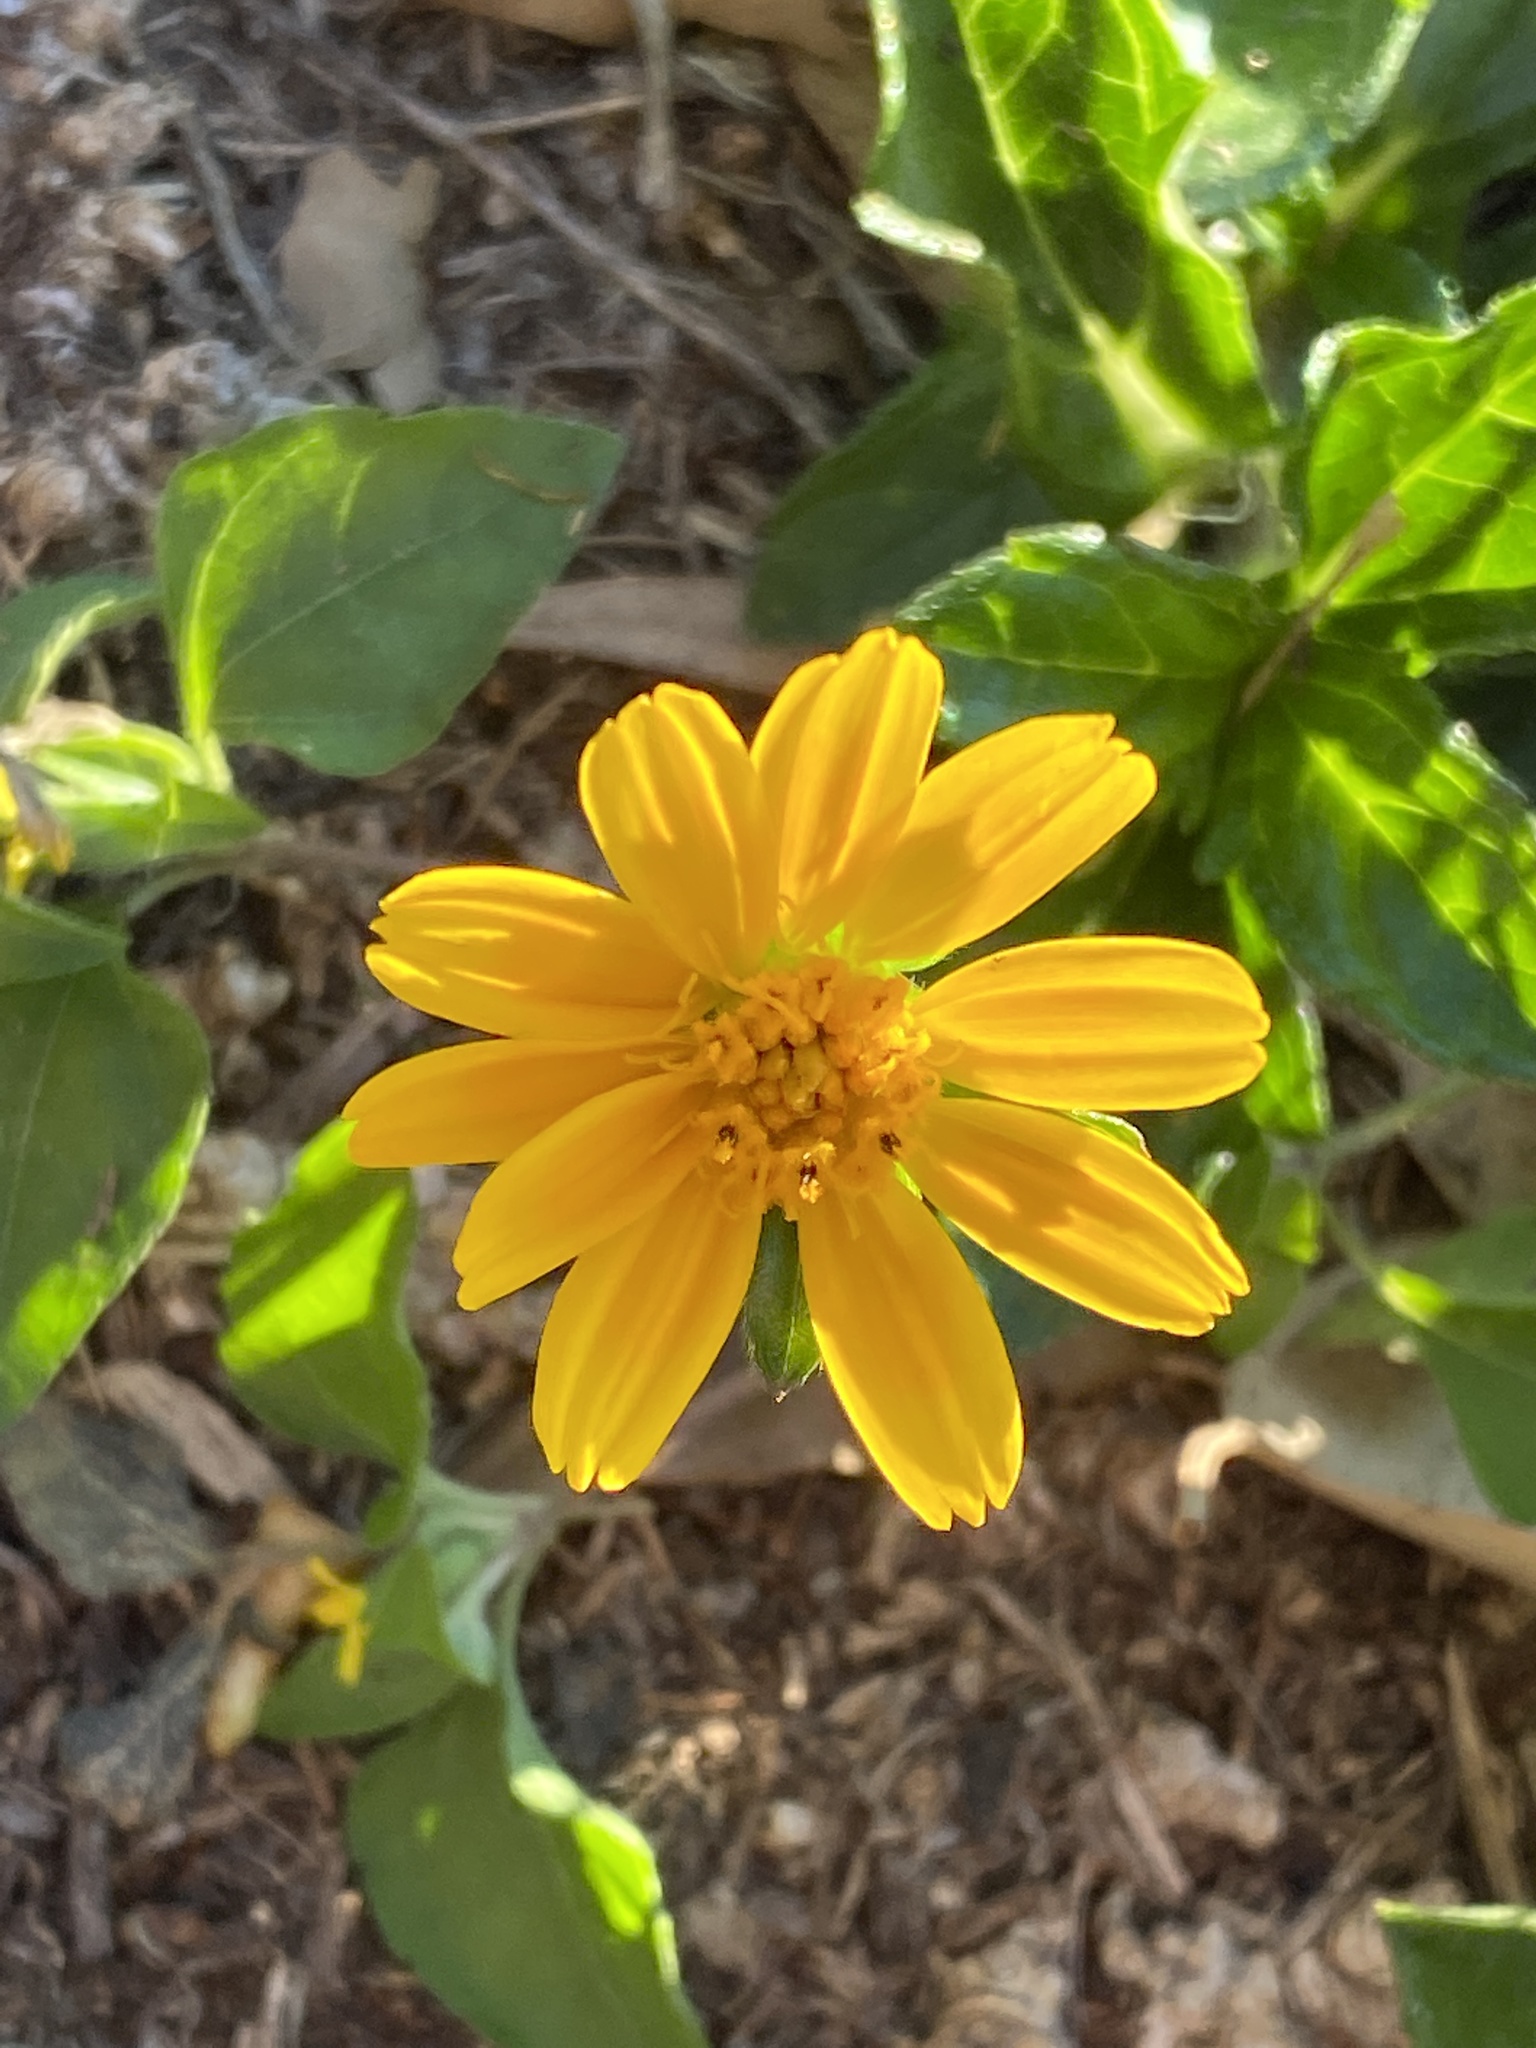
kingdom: Plantae
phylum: Tracheophyta
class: Magnoliopsida
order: Asterales
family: Asteraceae
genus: Sphagneticola
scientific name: Sphagneticola trilobata
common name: Bay biscayne creeping-oxeye
